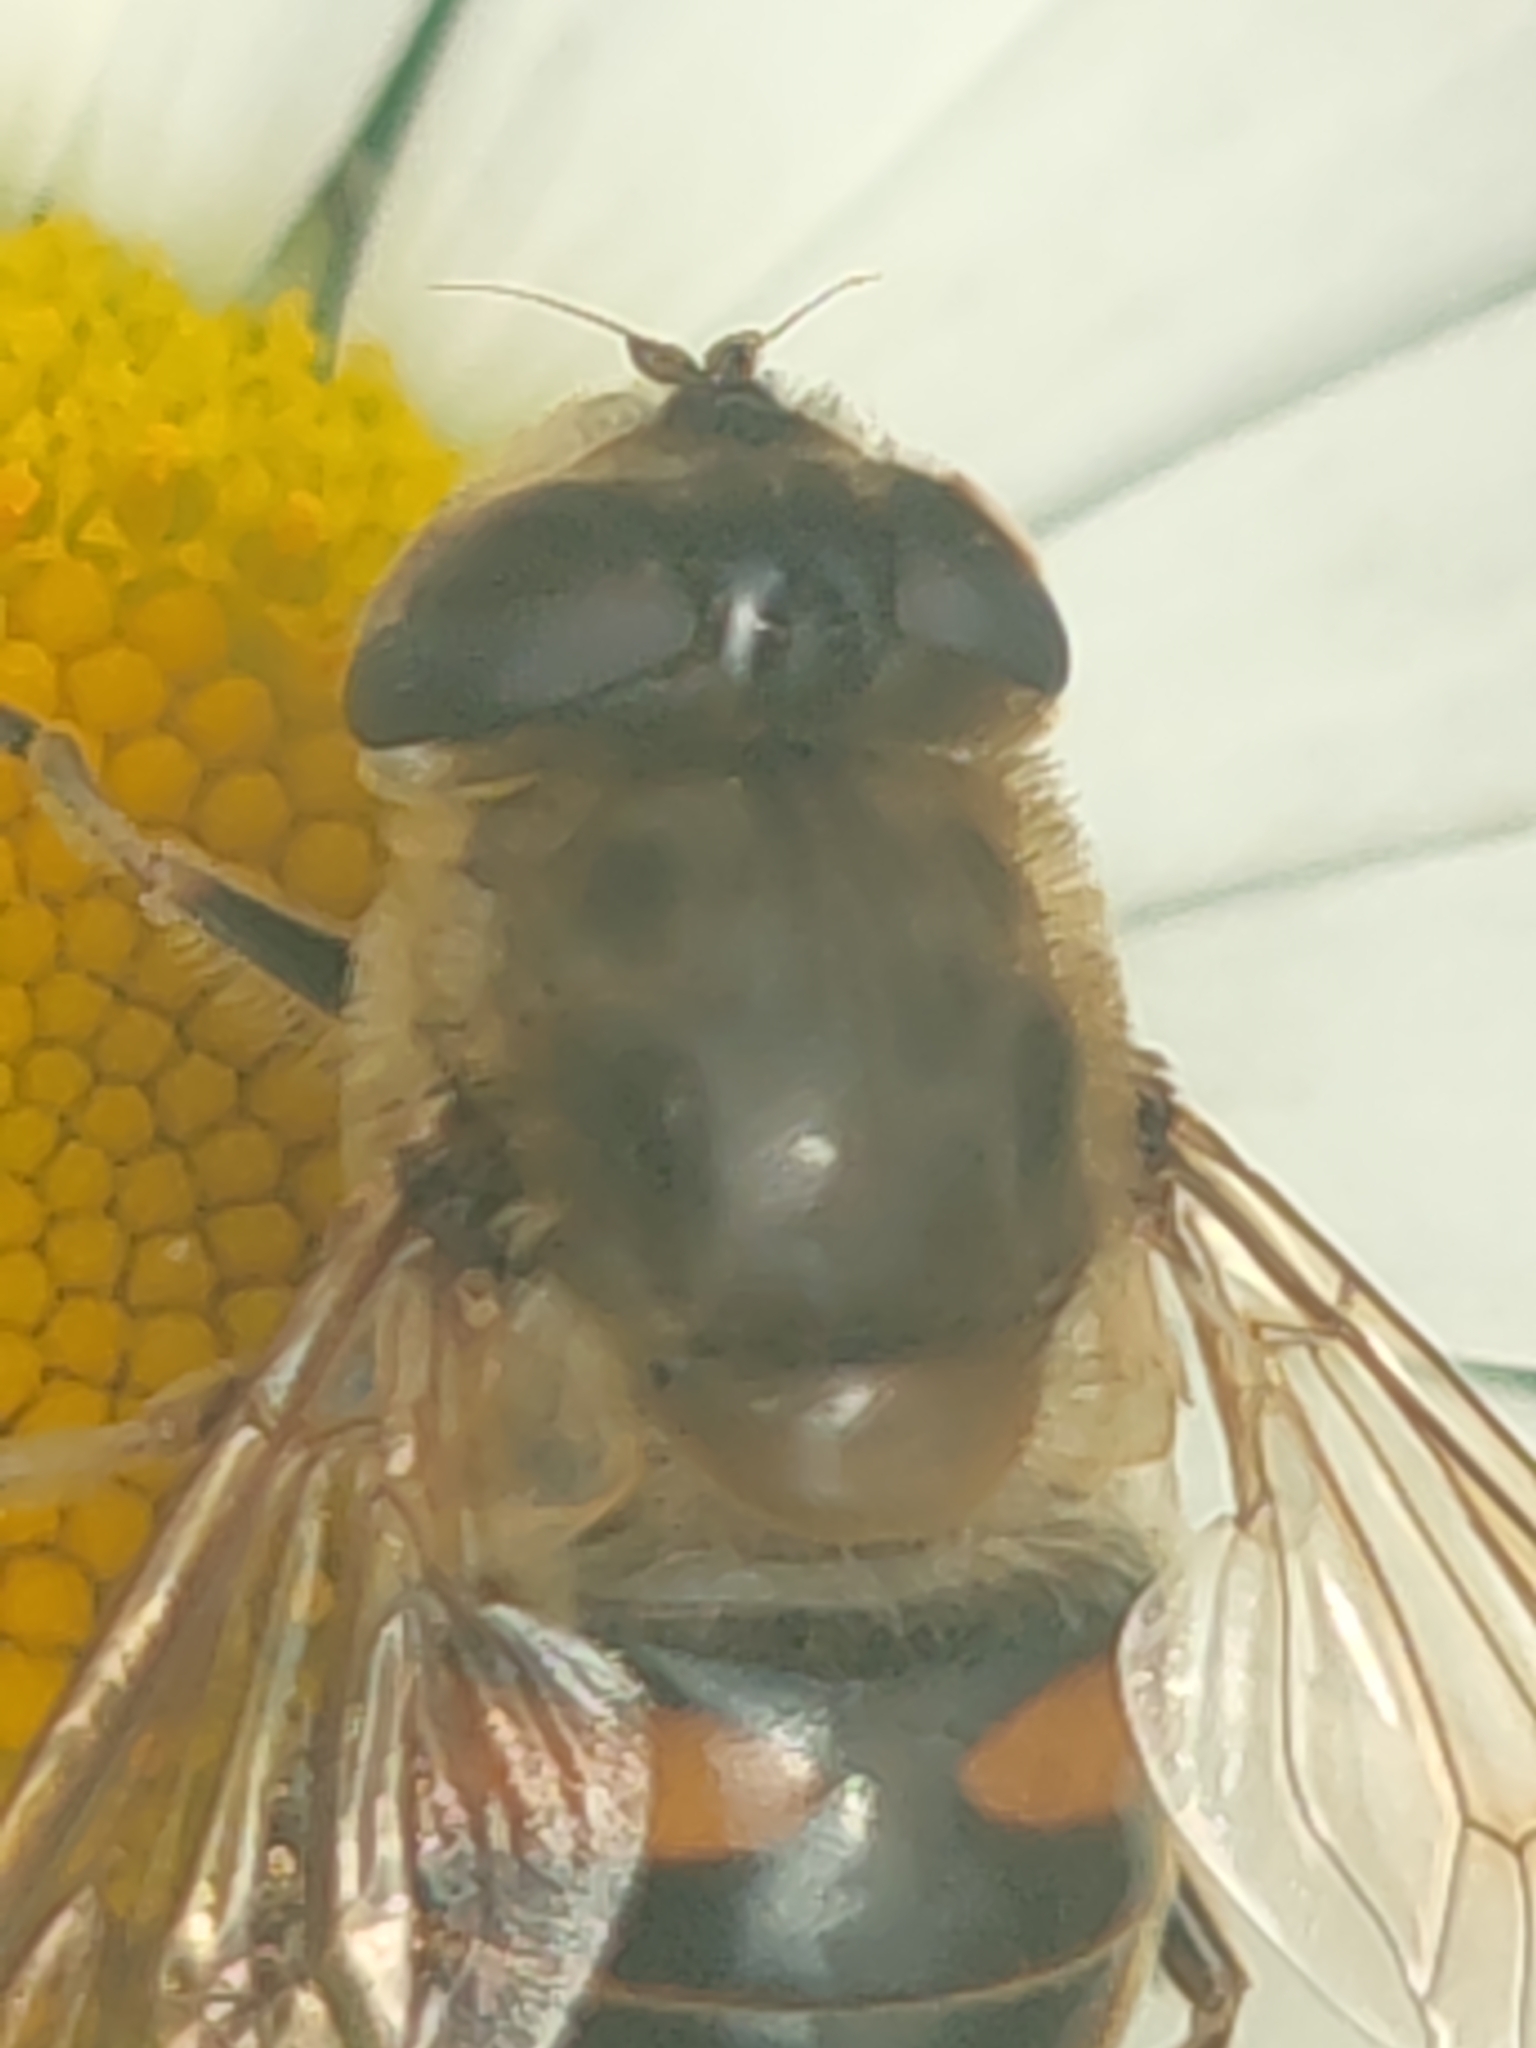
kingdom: Animalia
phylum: Arthropoda
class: Insecta
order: Diptera
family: Syrphidae
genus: Eristalis
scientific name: Eristalis tenax
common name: Drone fly
